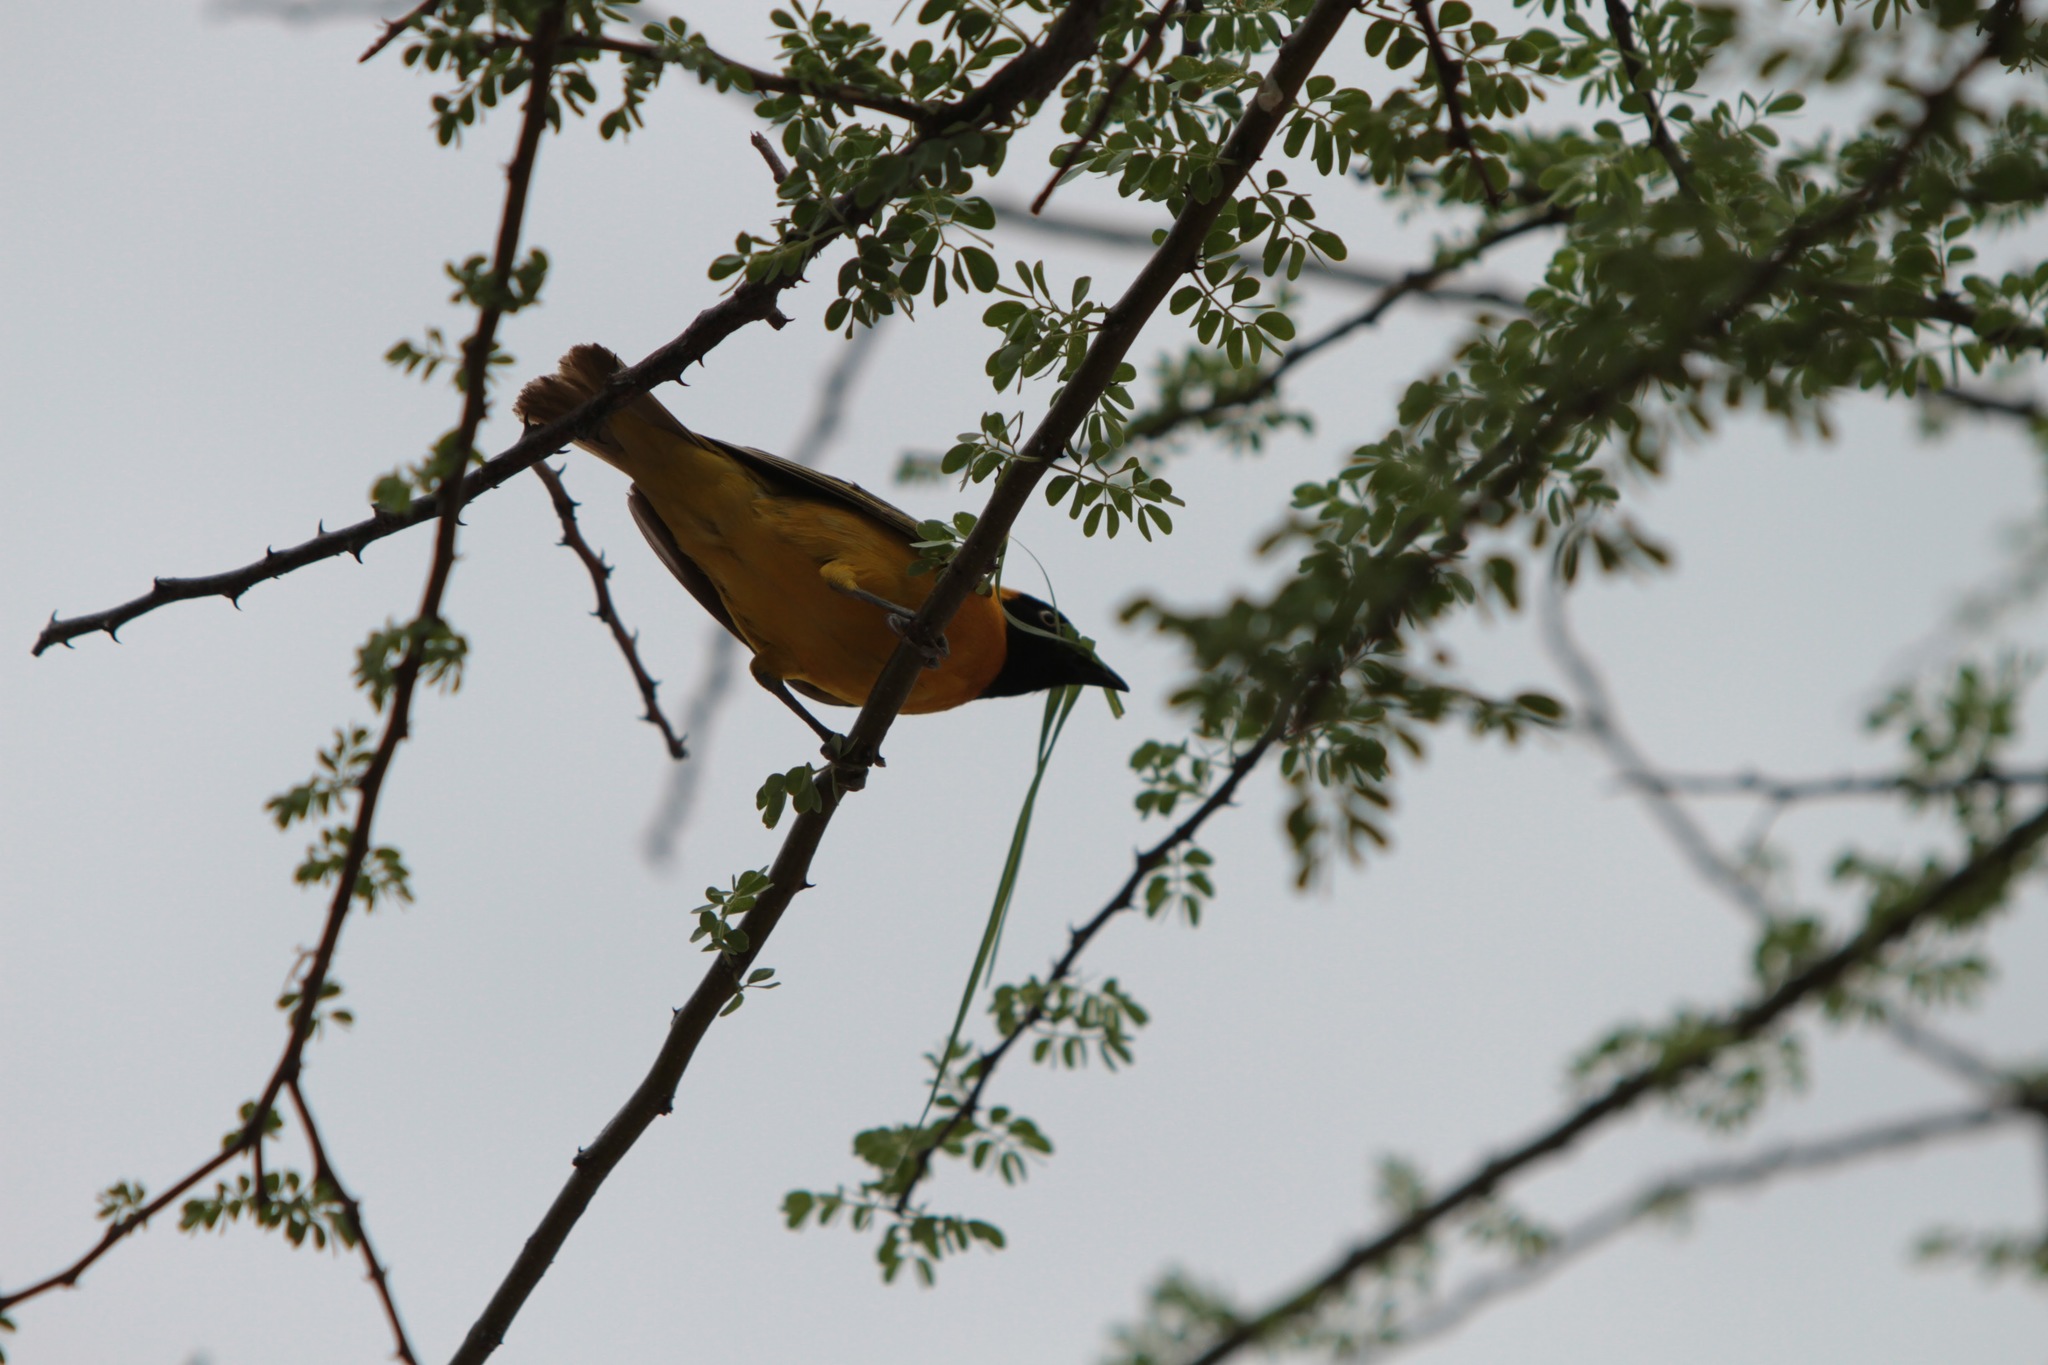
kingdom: Animalia
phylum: Chordata
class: Aves
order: Passeriformes
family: Ploceidae
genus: Ploceus
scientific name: Ploceus intermedius
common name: Lesser masked weaver
